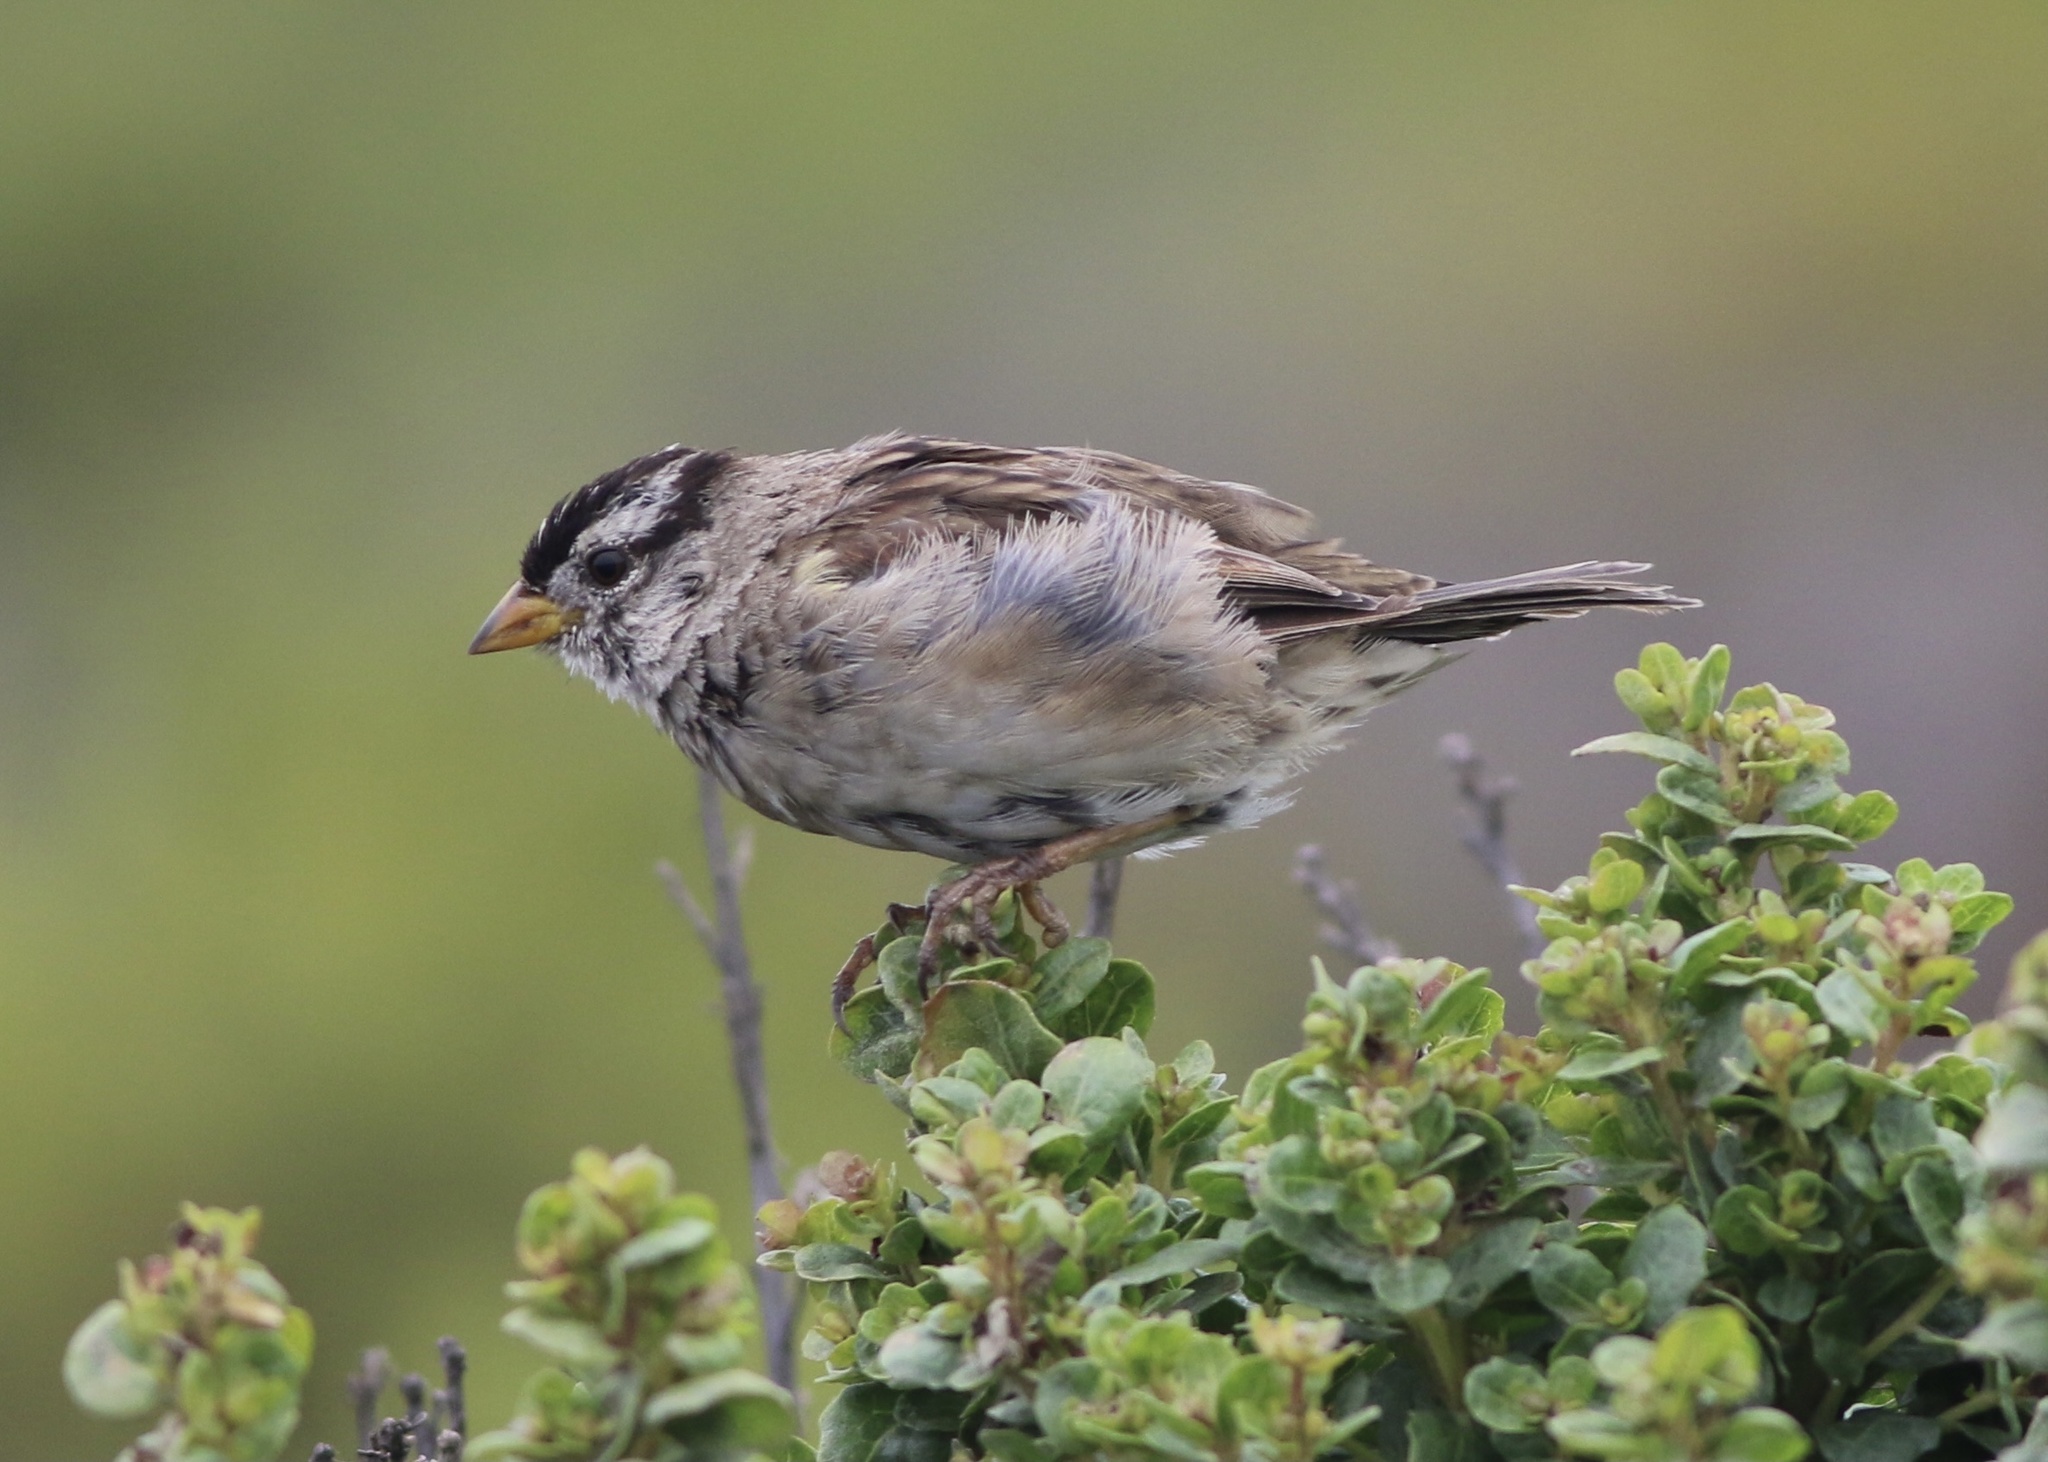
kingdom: Animalia
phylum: Chordata
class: Aves
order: Passeriformes
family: Passerellidae
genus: Zonotrichia
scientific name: Zonotrichia leucophrys
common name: White-crowned sparrow
